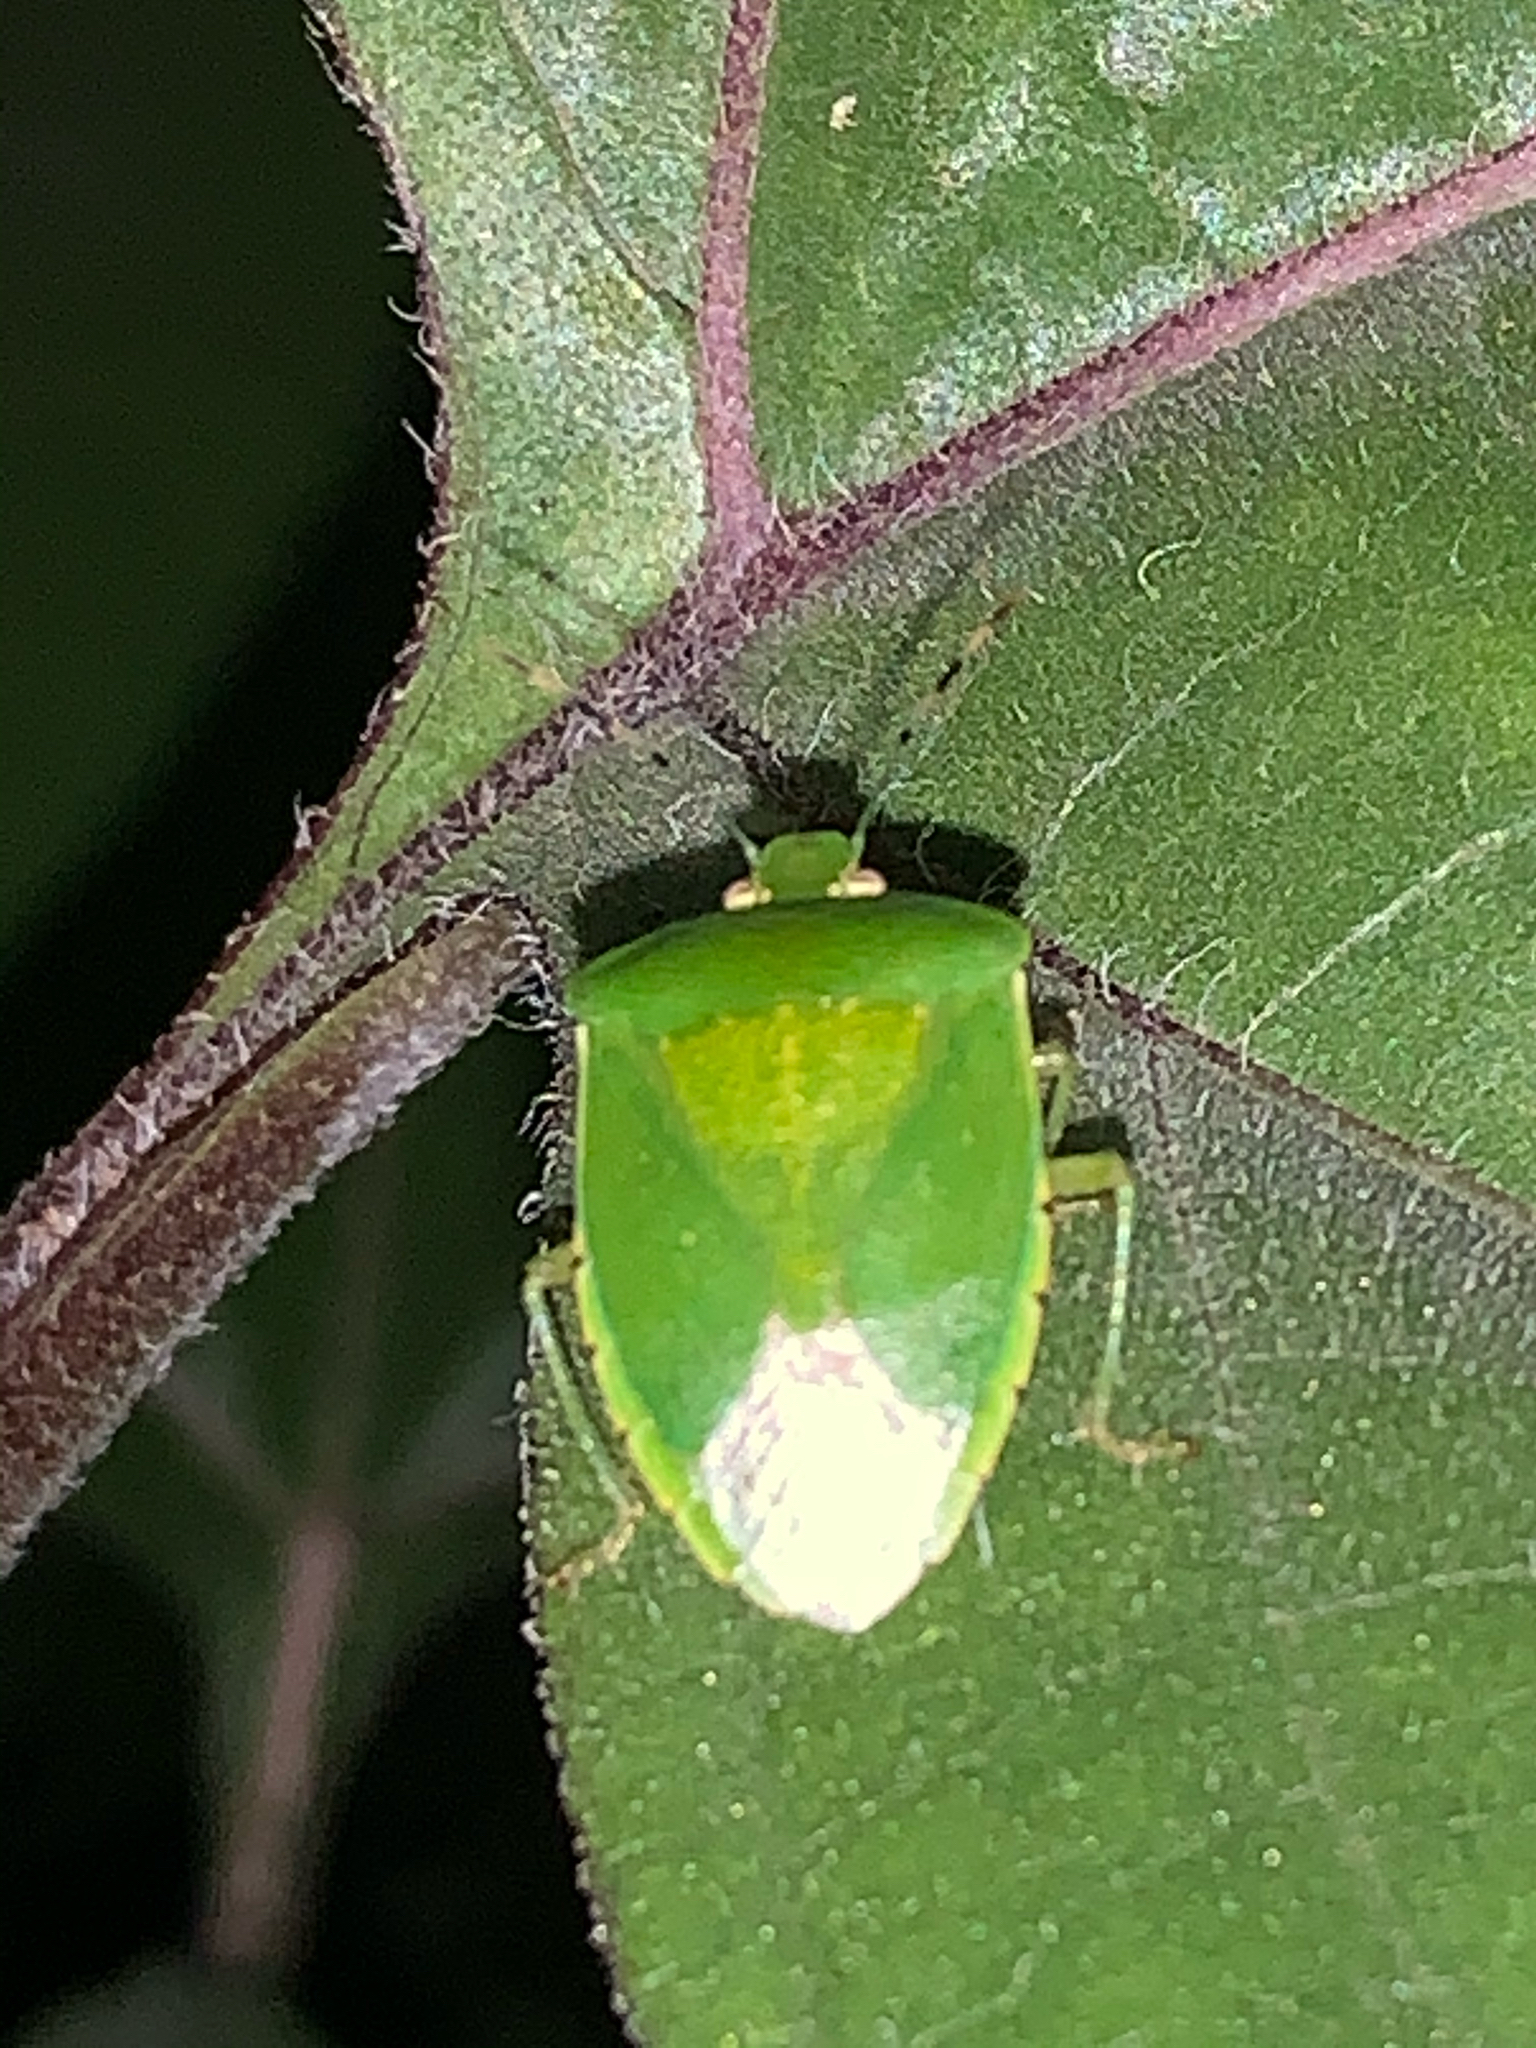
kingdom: Animalia
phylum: Arthropoda
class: Insecta
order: Hemiptera
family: Pentatomidae
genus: Chinavia
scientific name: Chinavia hilaris
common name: Green stink bug
